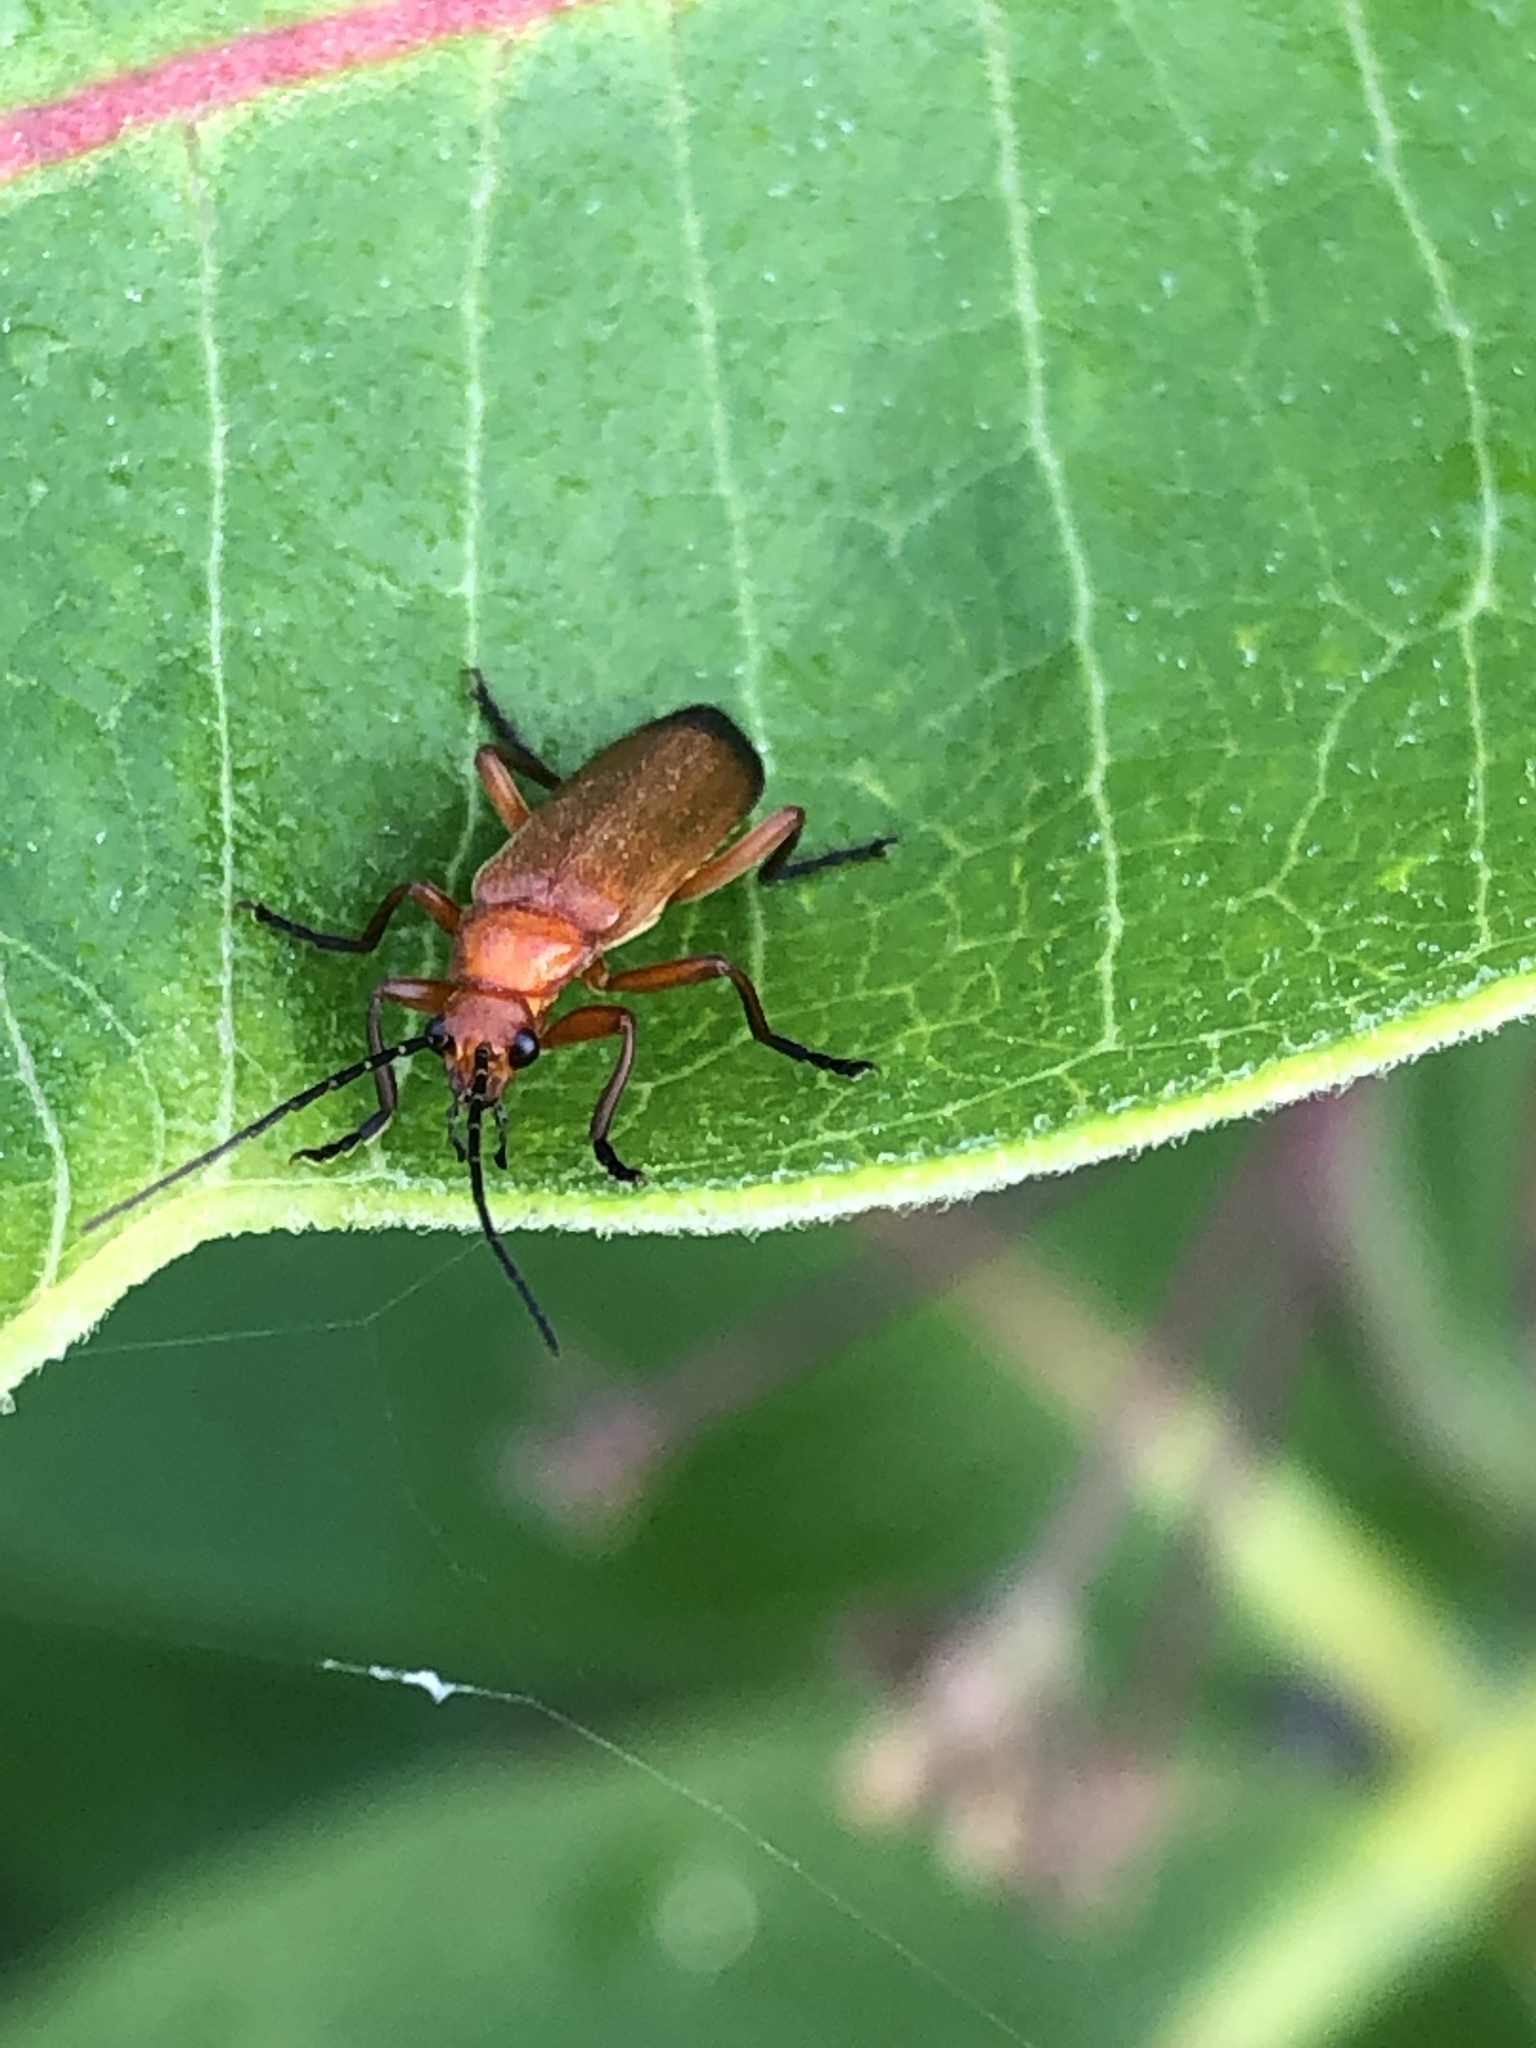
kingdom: Animalia
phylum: Arthropoda
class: Insecta
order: Coleoptera
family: Cantharidae
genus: Rhagonycha
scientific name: Rhagonycha fulva
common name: Common red soldier beetle
